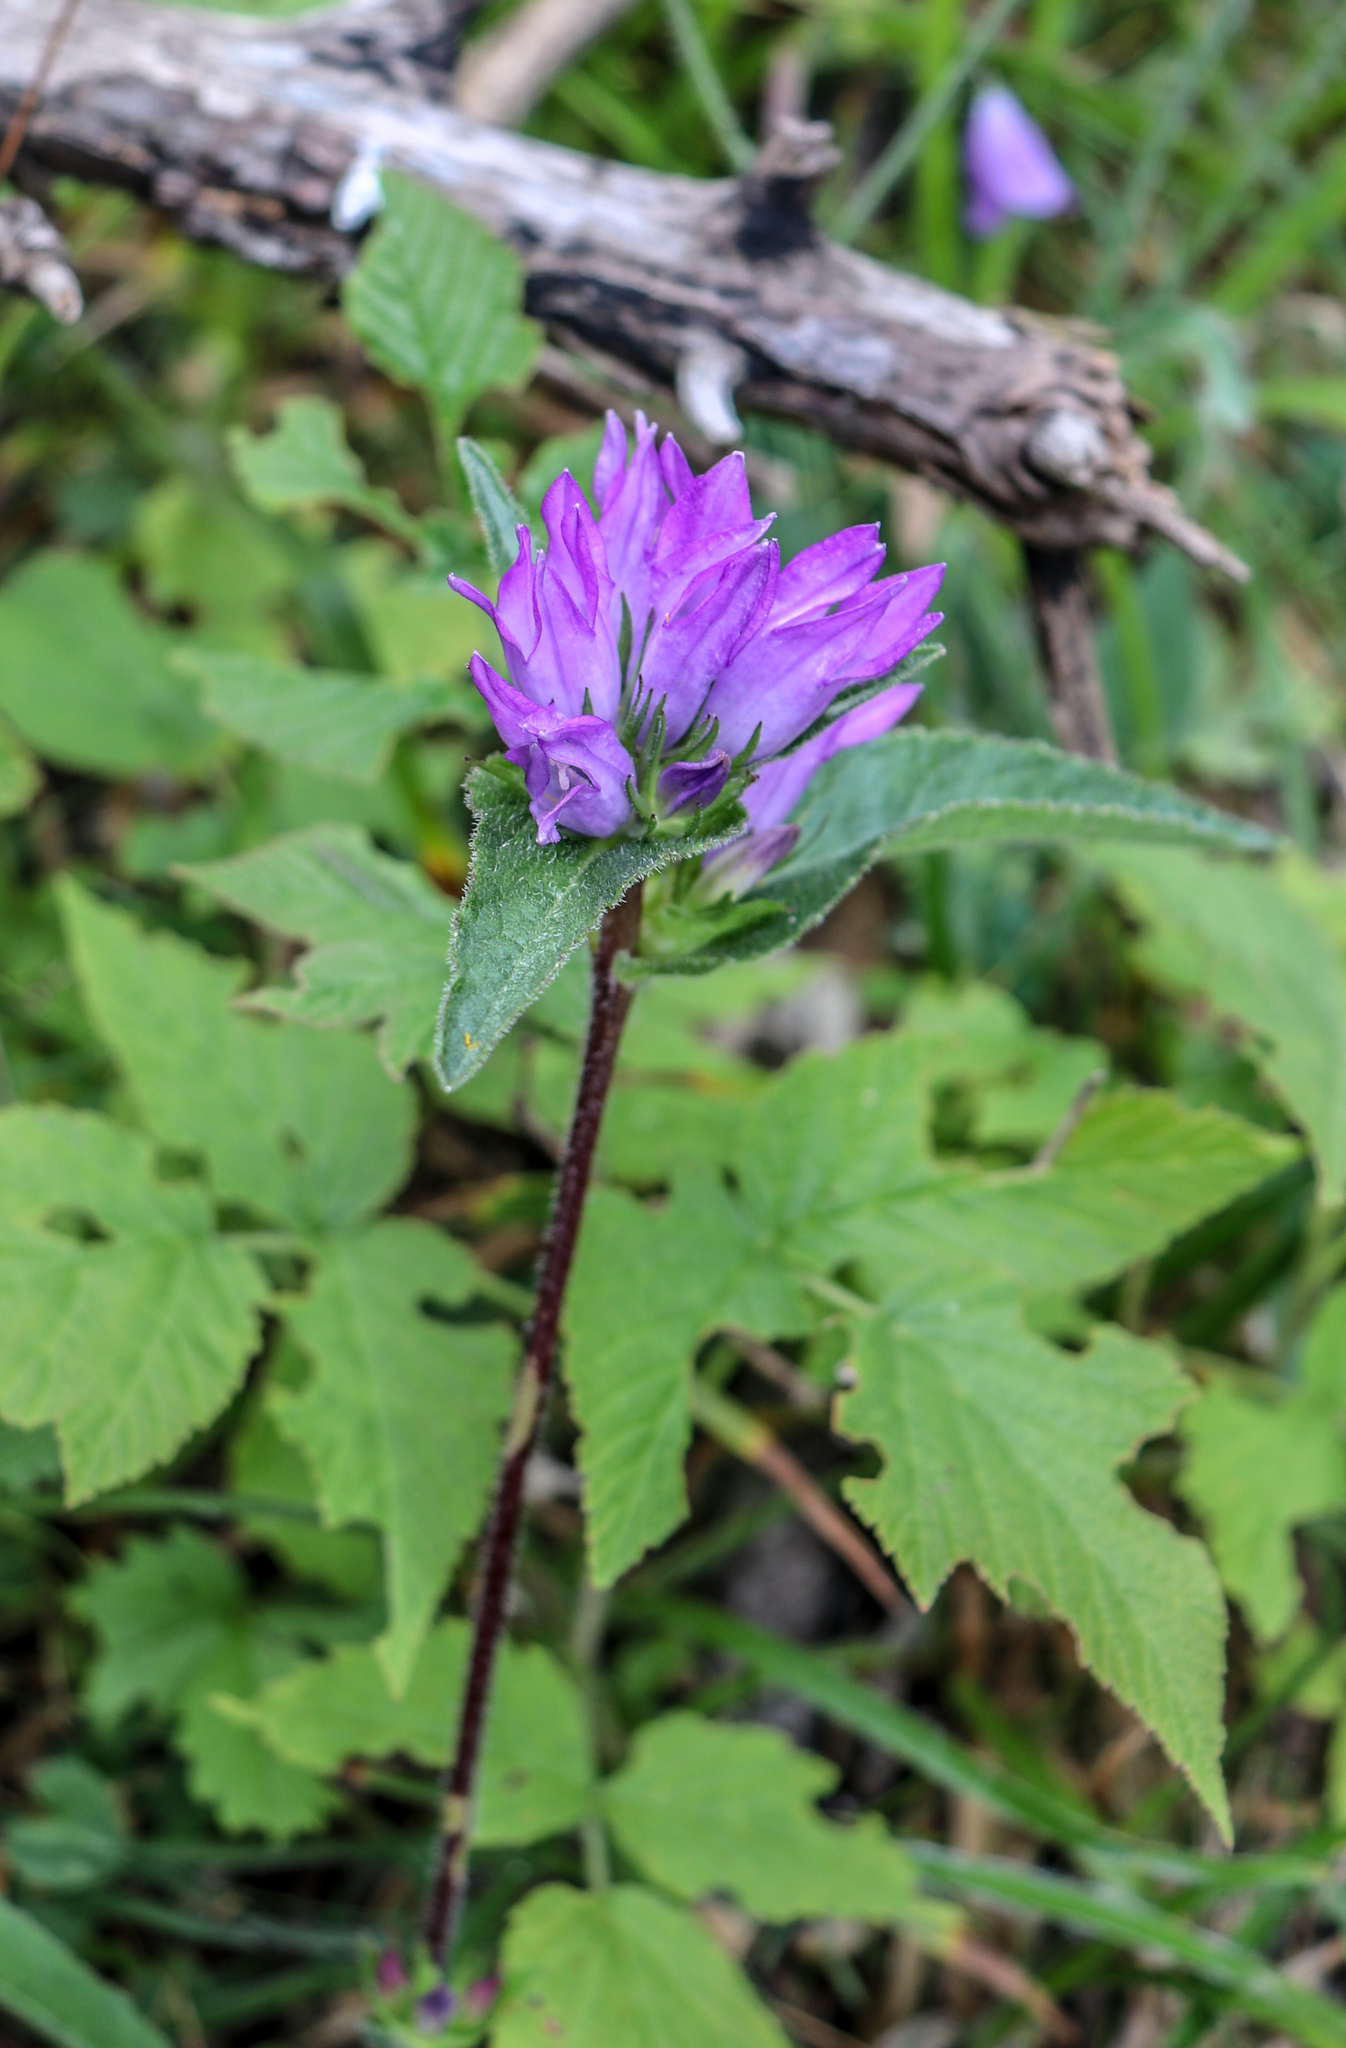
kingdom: Plantae
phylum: Tracheophyta
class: Magnoliopsida
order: Asterales
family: Campanulaceae
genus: Campanula
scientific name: Campanula glomerata
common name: Clustered bellflower
